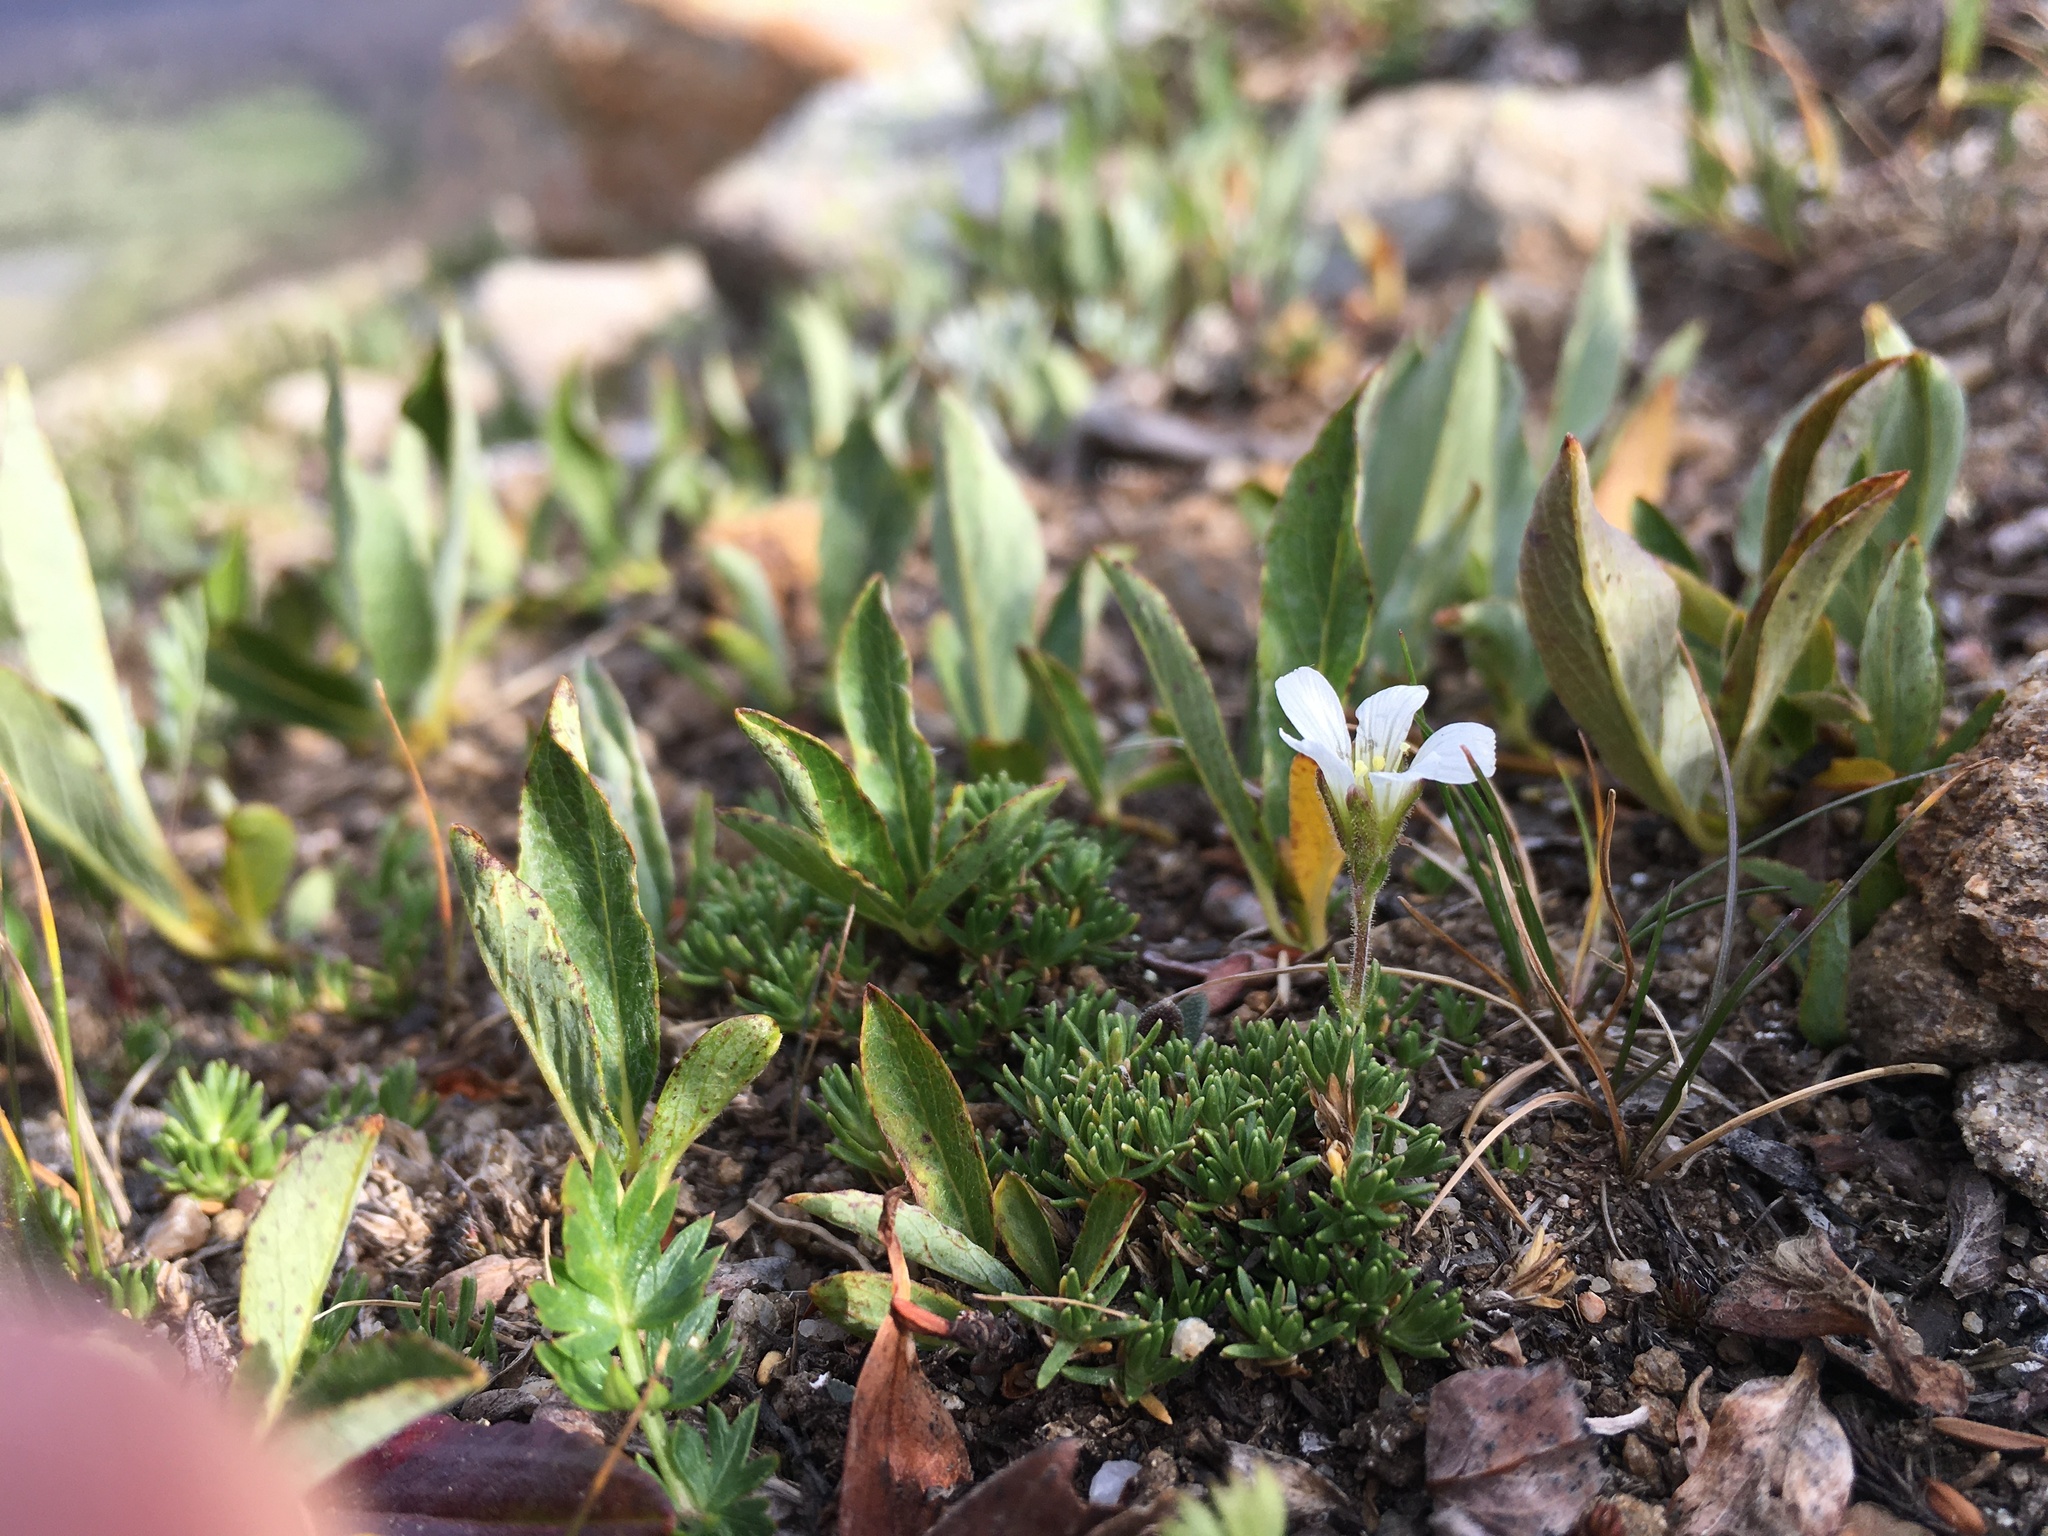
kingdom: Plantae
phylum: Tracheophyta
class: Magnoliopsida
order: Caryophyllales
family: Caryophyllaceae
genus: Cherleria
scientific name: Cherleria obtusiloba
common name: Alpine stitchwort
